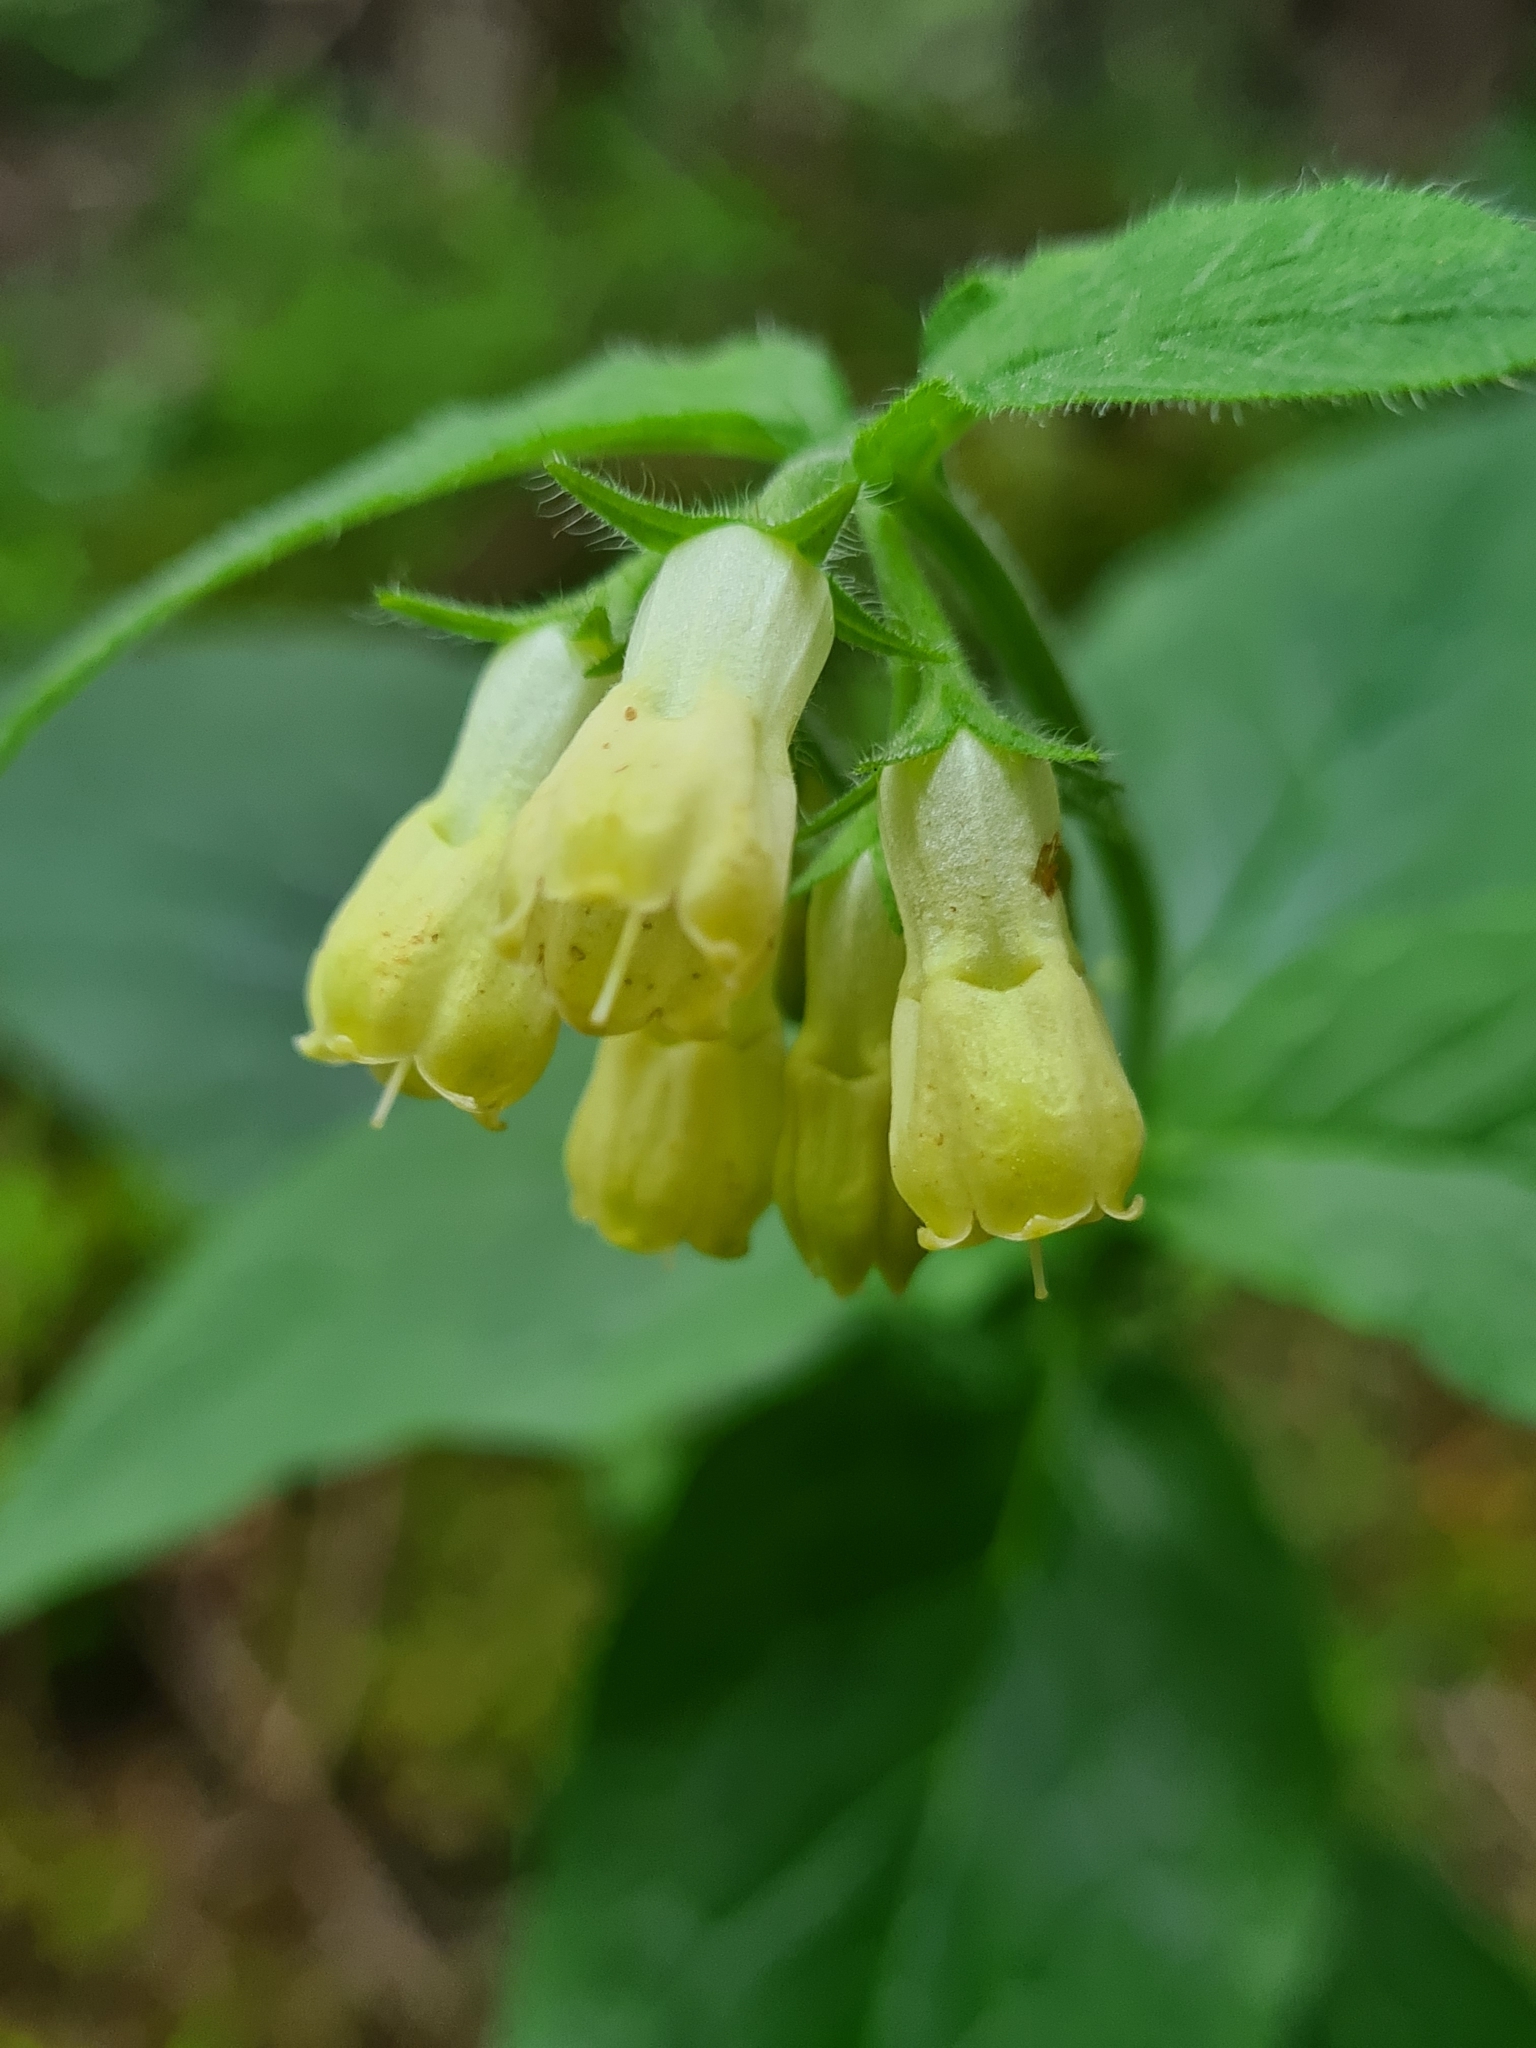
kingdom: Plantae
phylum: Tracheophyta
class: Magnoliopsida
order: Boraginales
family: Boraginaceae
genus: Symphytum
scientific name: Symphytum tuberosum
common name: Tuberous comfrey
